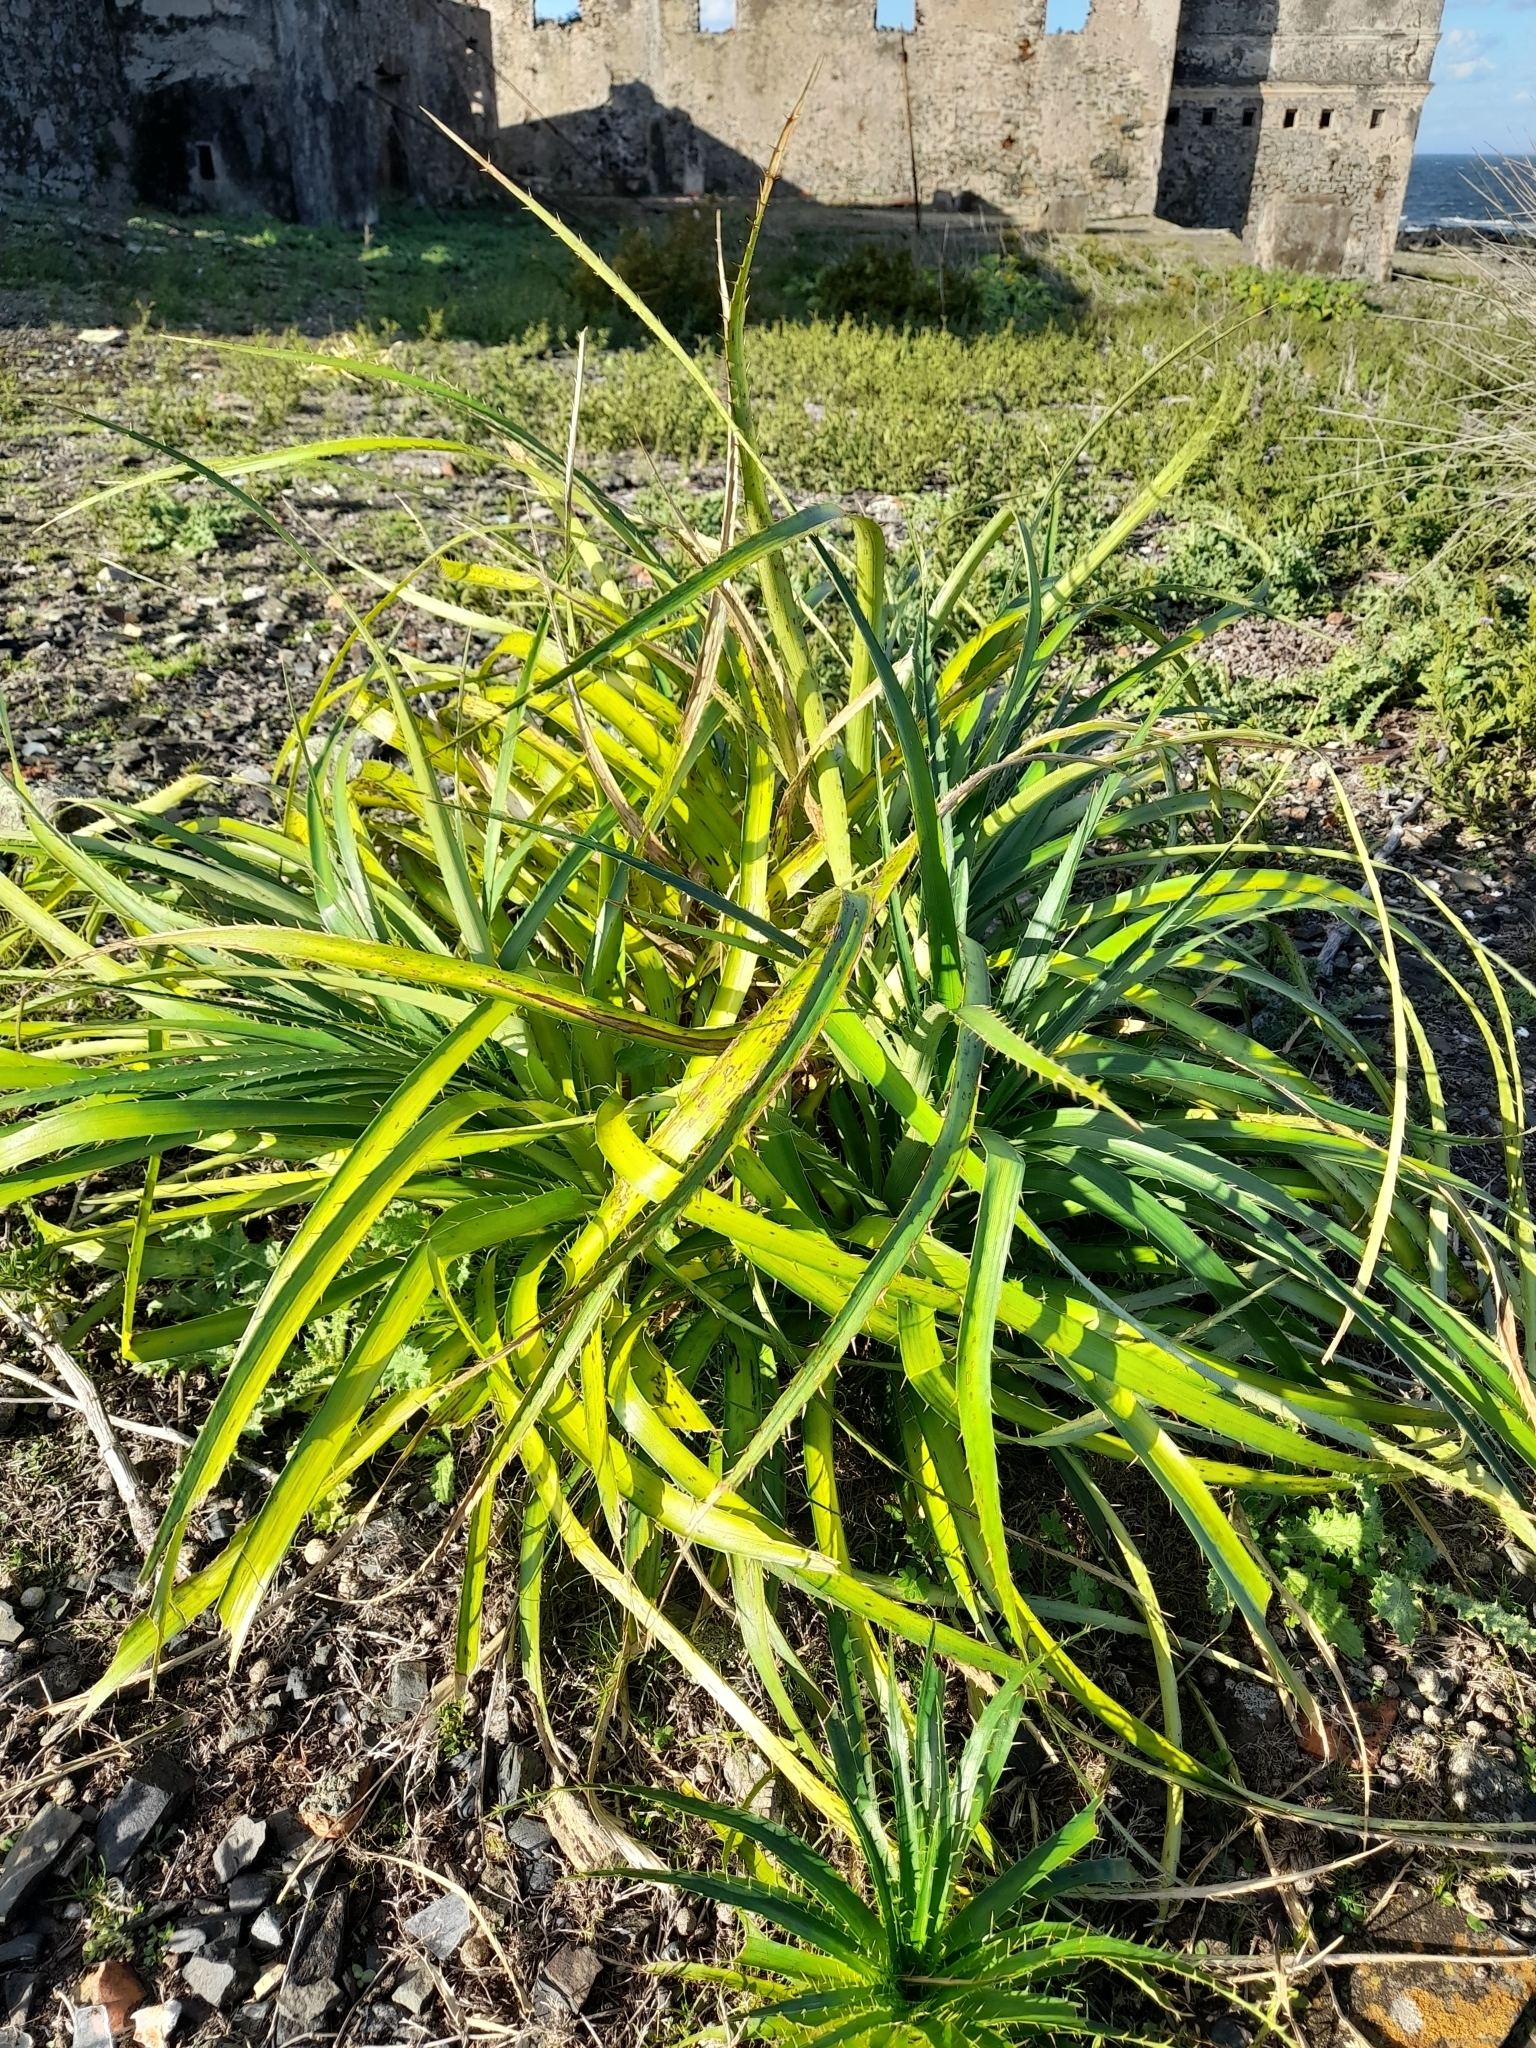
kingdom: Plantae
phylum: Tracheophyta
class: Magnoliopsida
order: Apiales
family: Apiaceae
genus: Eryngium
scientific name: Eryngium horridum
